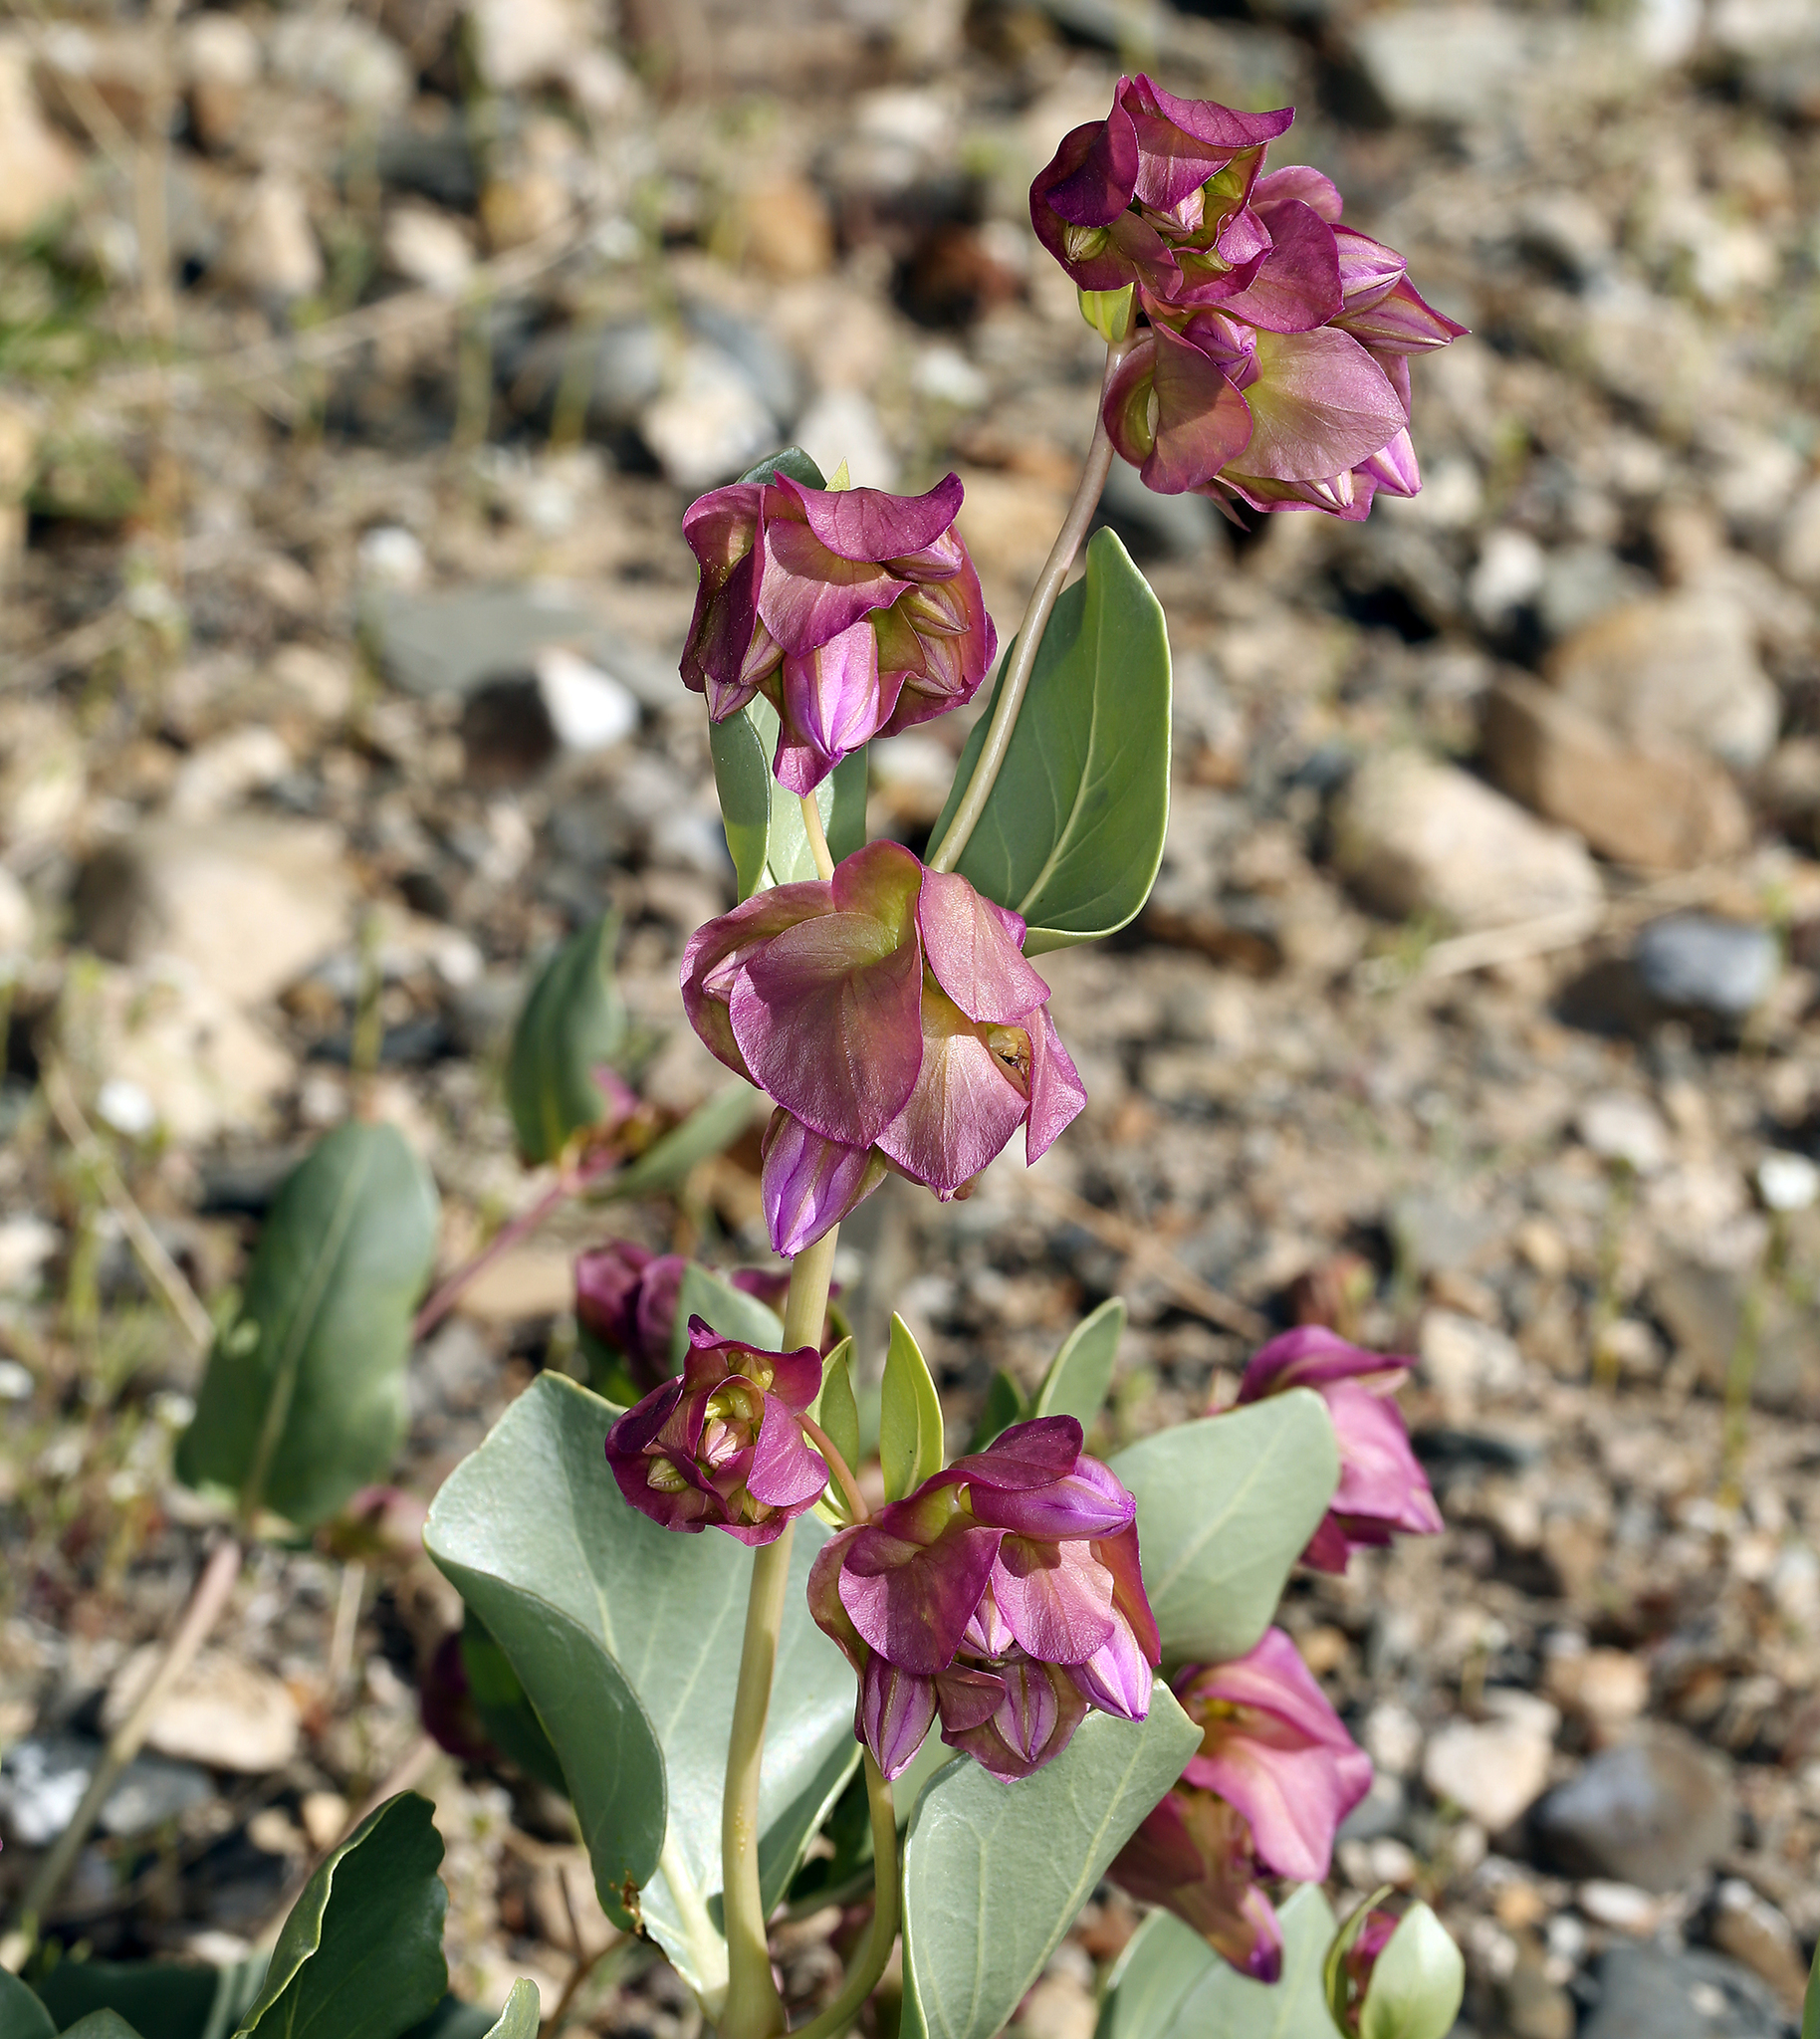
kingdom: Plantae
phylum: Tracheophyta
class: Magnoliopsida
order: Caryophyllales
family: Nyctaginaceae
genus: Mirabilis
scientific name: Mirabilis alipes
